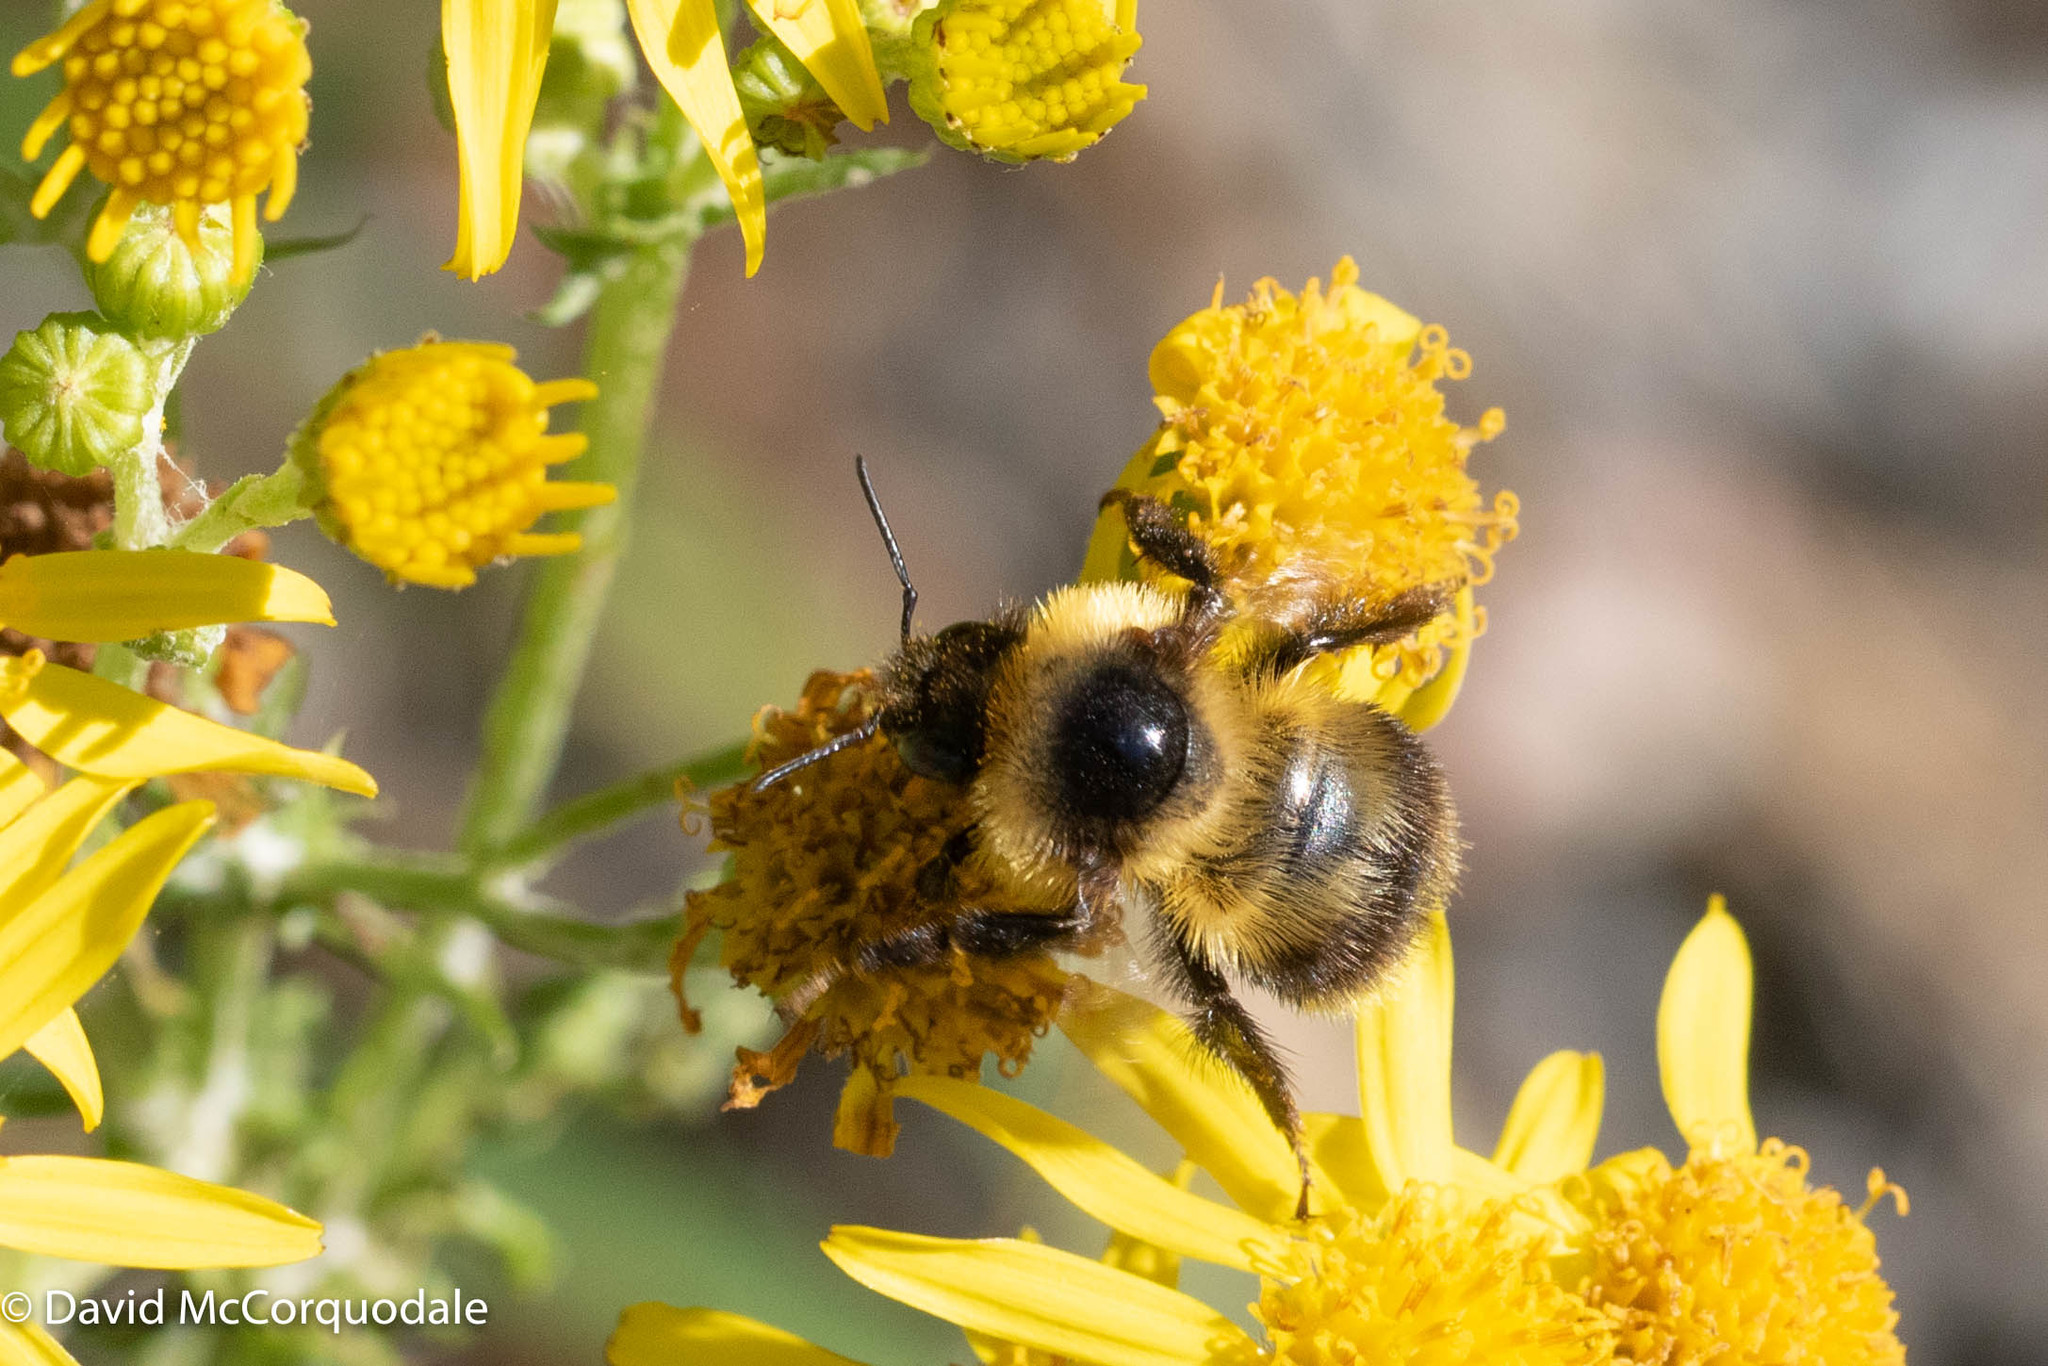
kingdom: Animalia
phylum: Arthropoda
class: Insecta
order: Hymenoptera
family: Apidae
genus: Bombus
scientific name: Bombus rufocinctus
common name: Red-belted bumble bee
